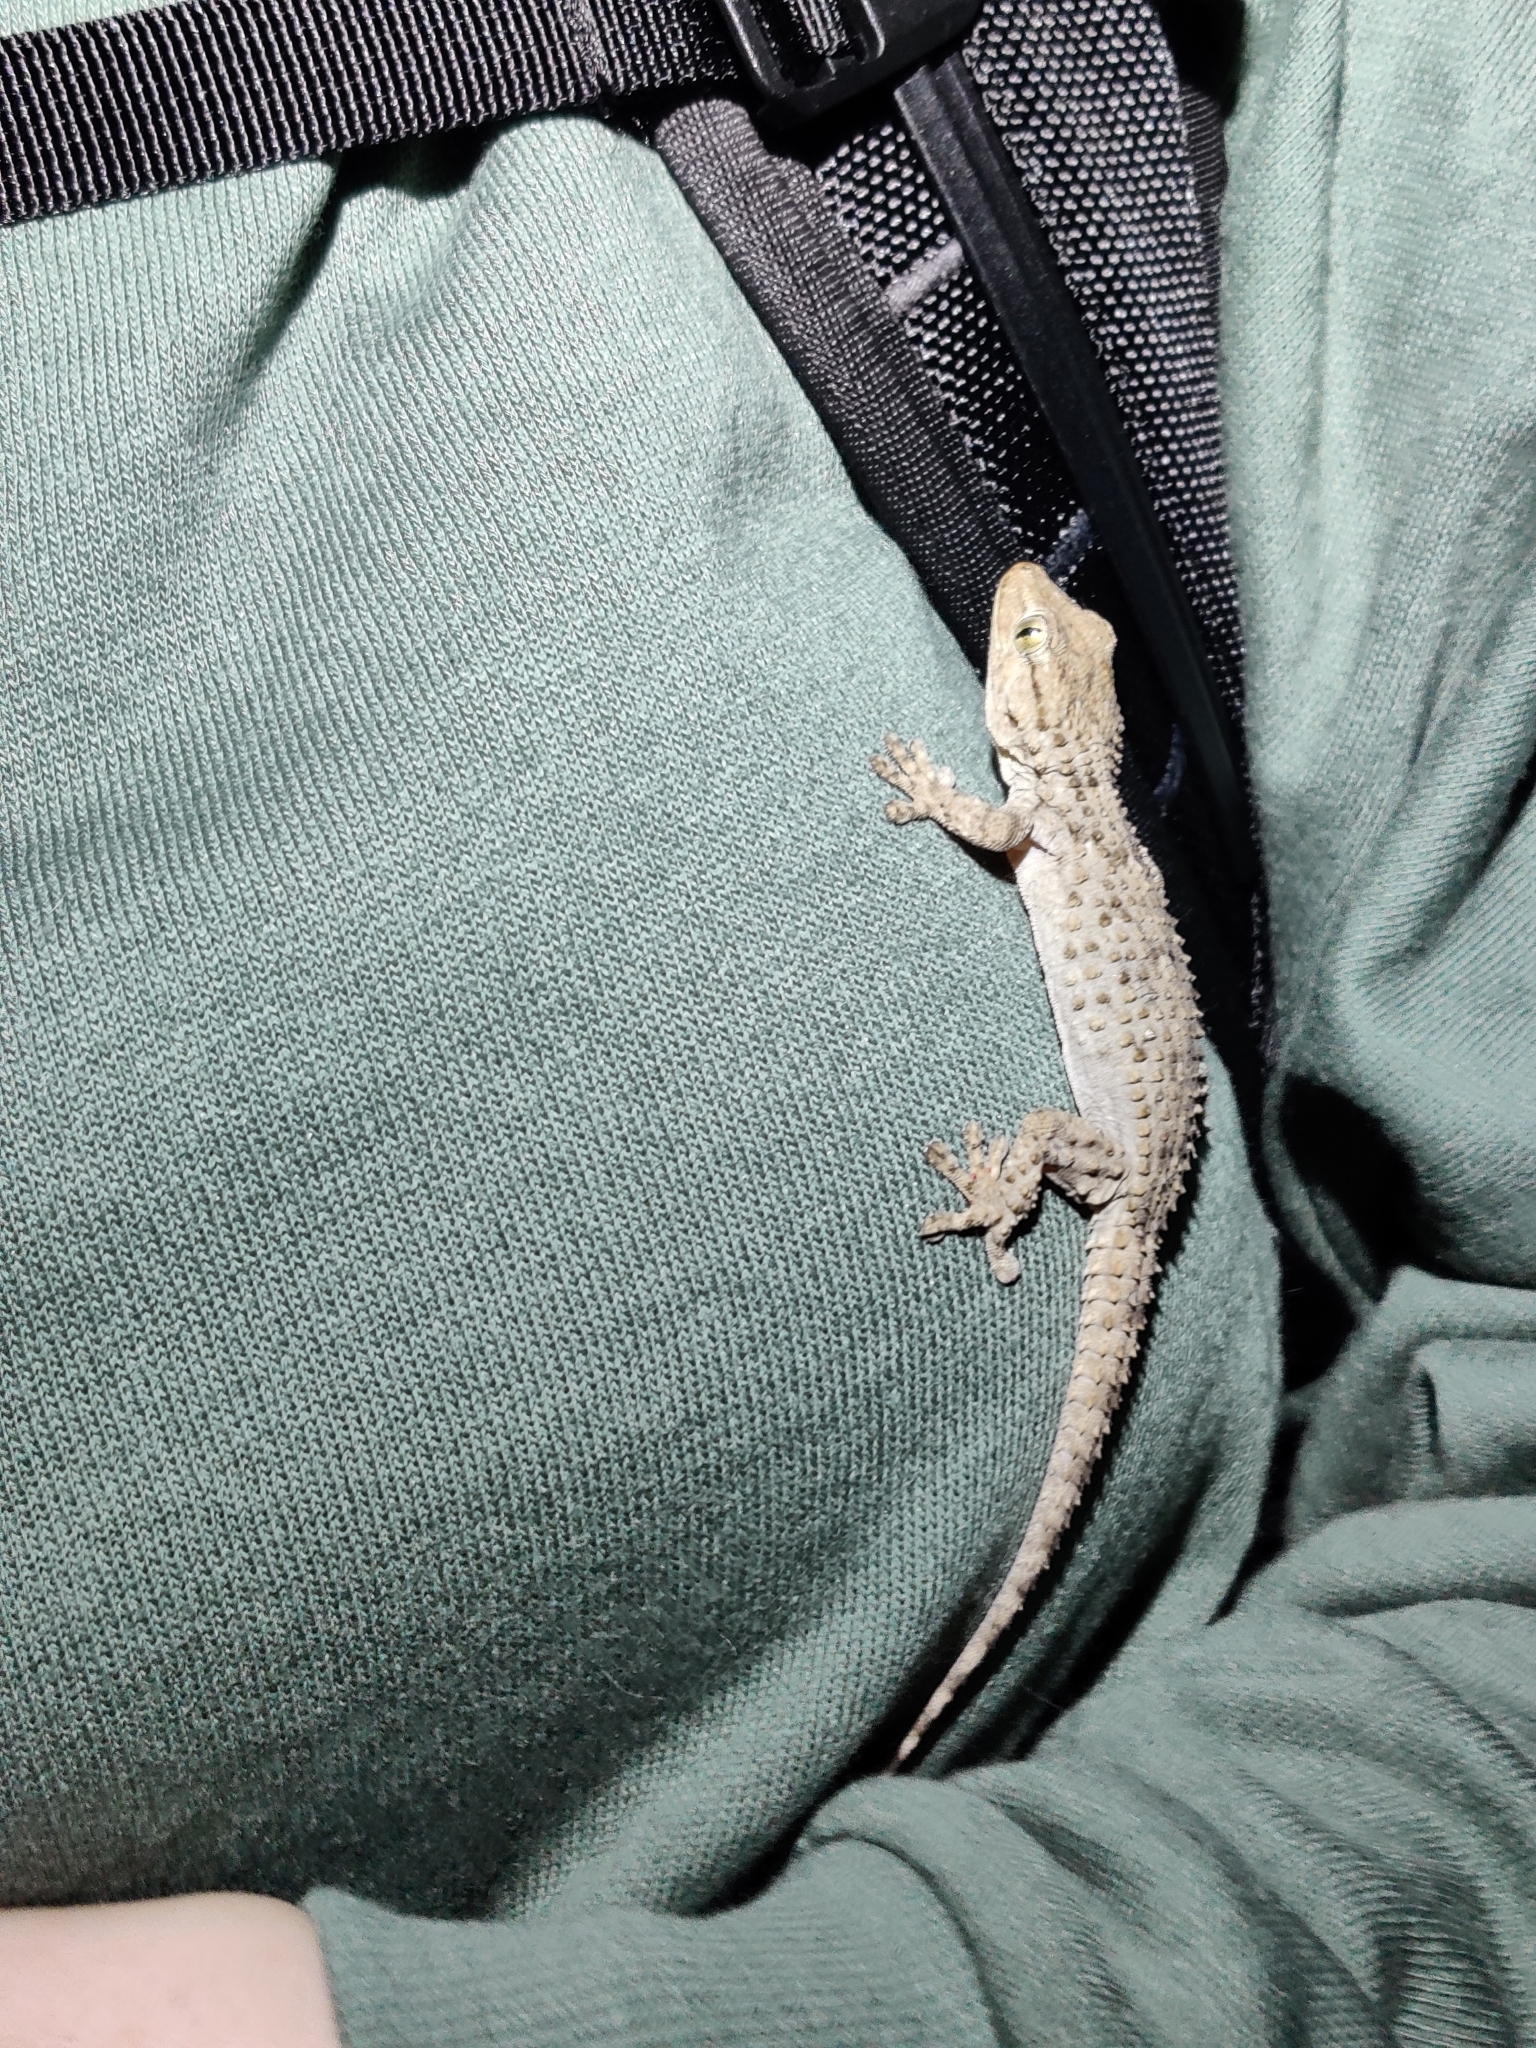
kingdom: Animalia
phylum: Chordata
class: Squamata
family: Phyllodactylidae
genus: Tarentola
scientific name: Tarentola mauritanica
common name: Moorish gecko
